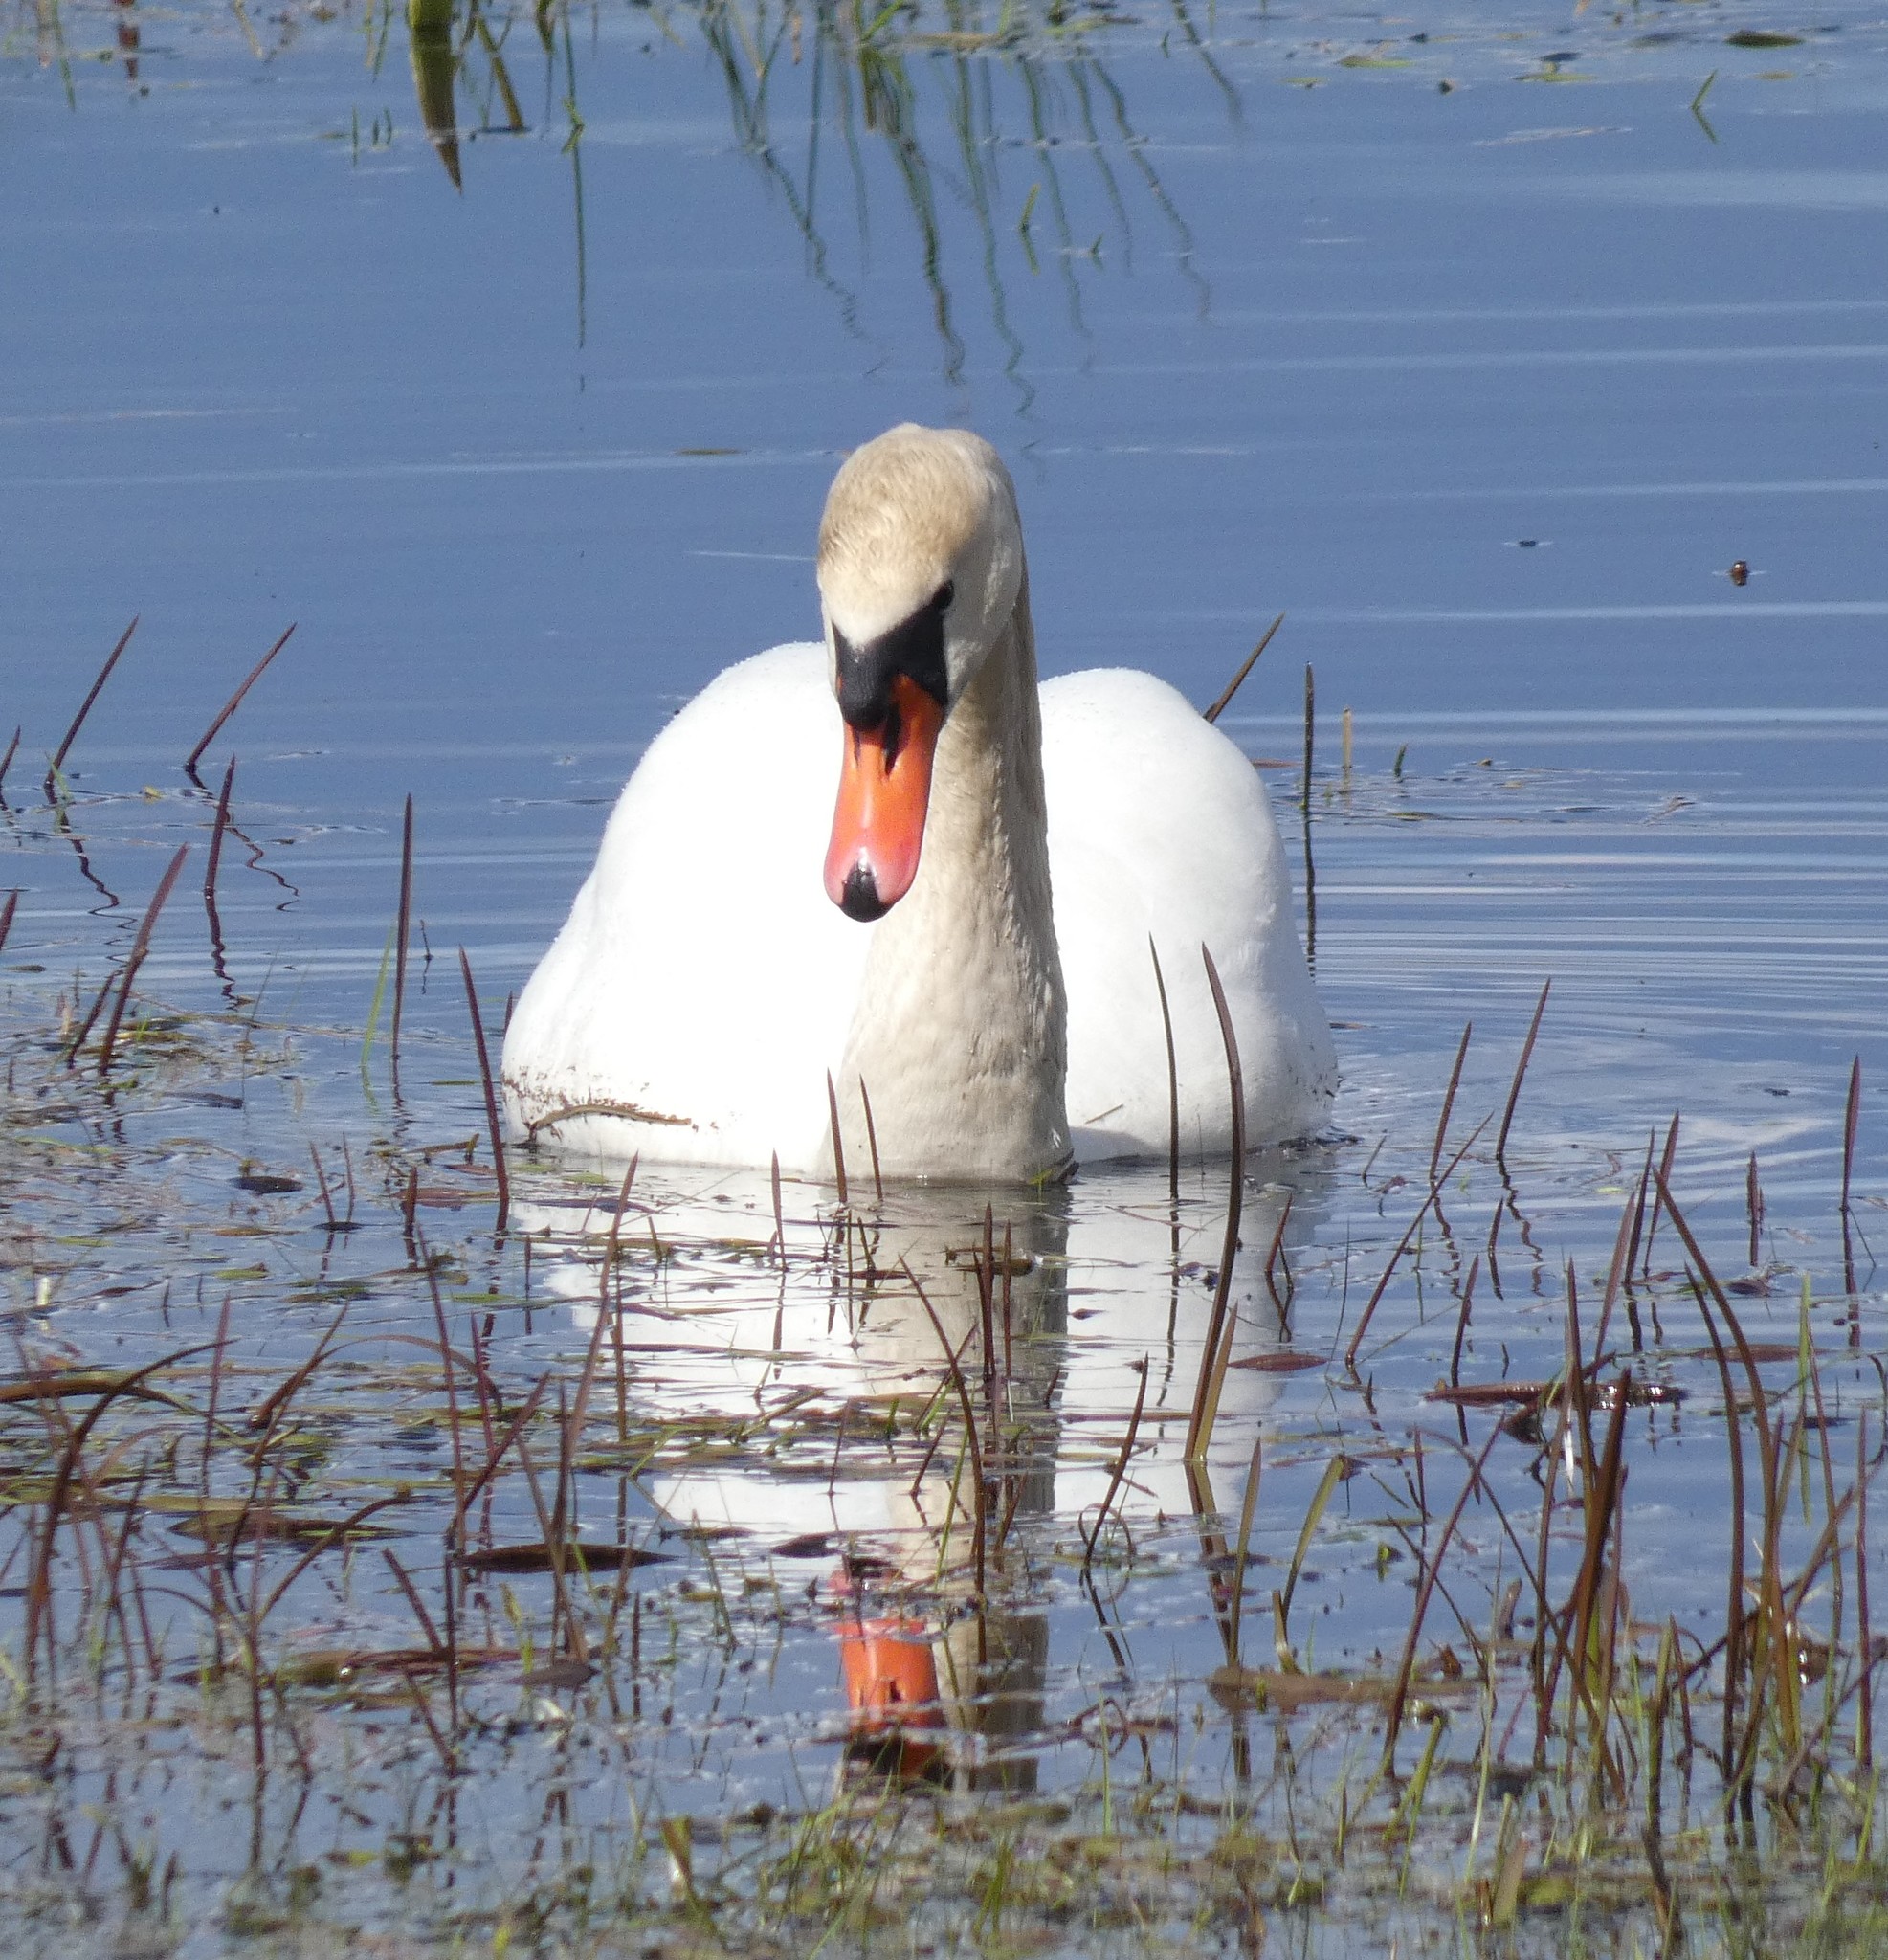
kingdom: Animalia
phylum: Chordata
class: Aves
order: Anseriformes
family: Anatidae
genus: Cygnus
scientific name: Cygnus olor
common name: Mute swan
